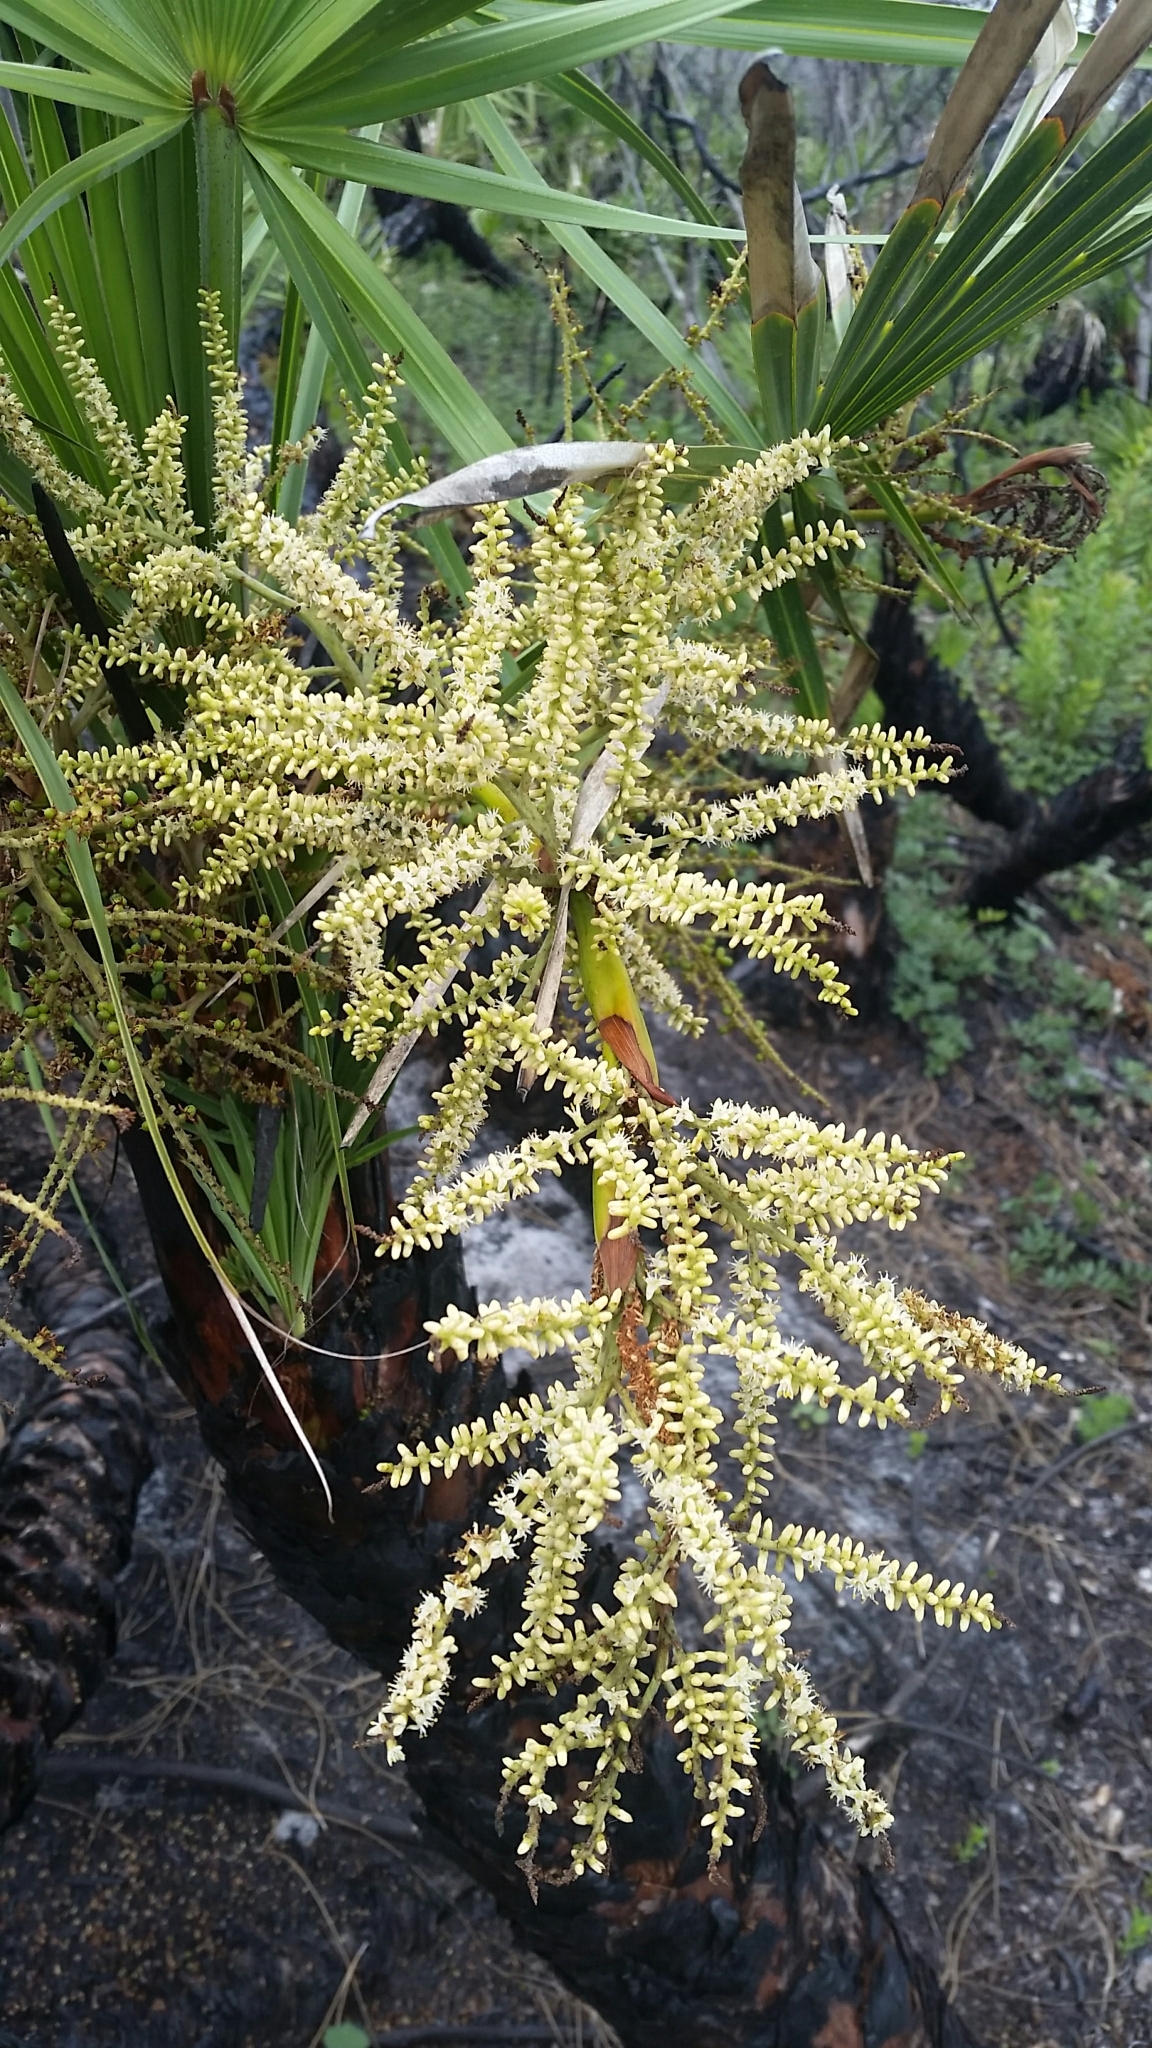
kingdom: Plantae
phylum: Tracheophyta
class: Liliopsida
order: Arecales
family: Arecaceae
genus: Serenoa
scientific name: Serenoa repens
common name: Saw-palmetto
